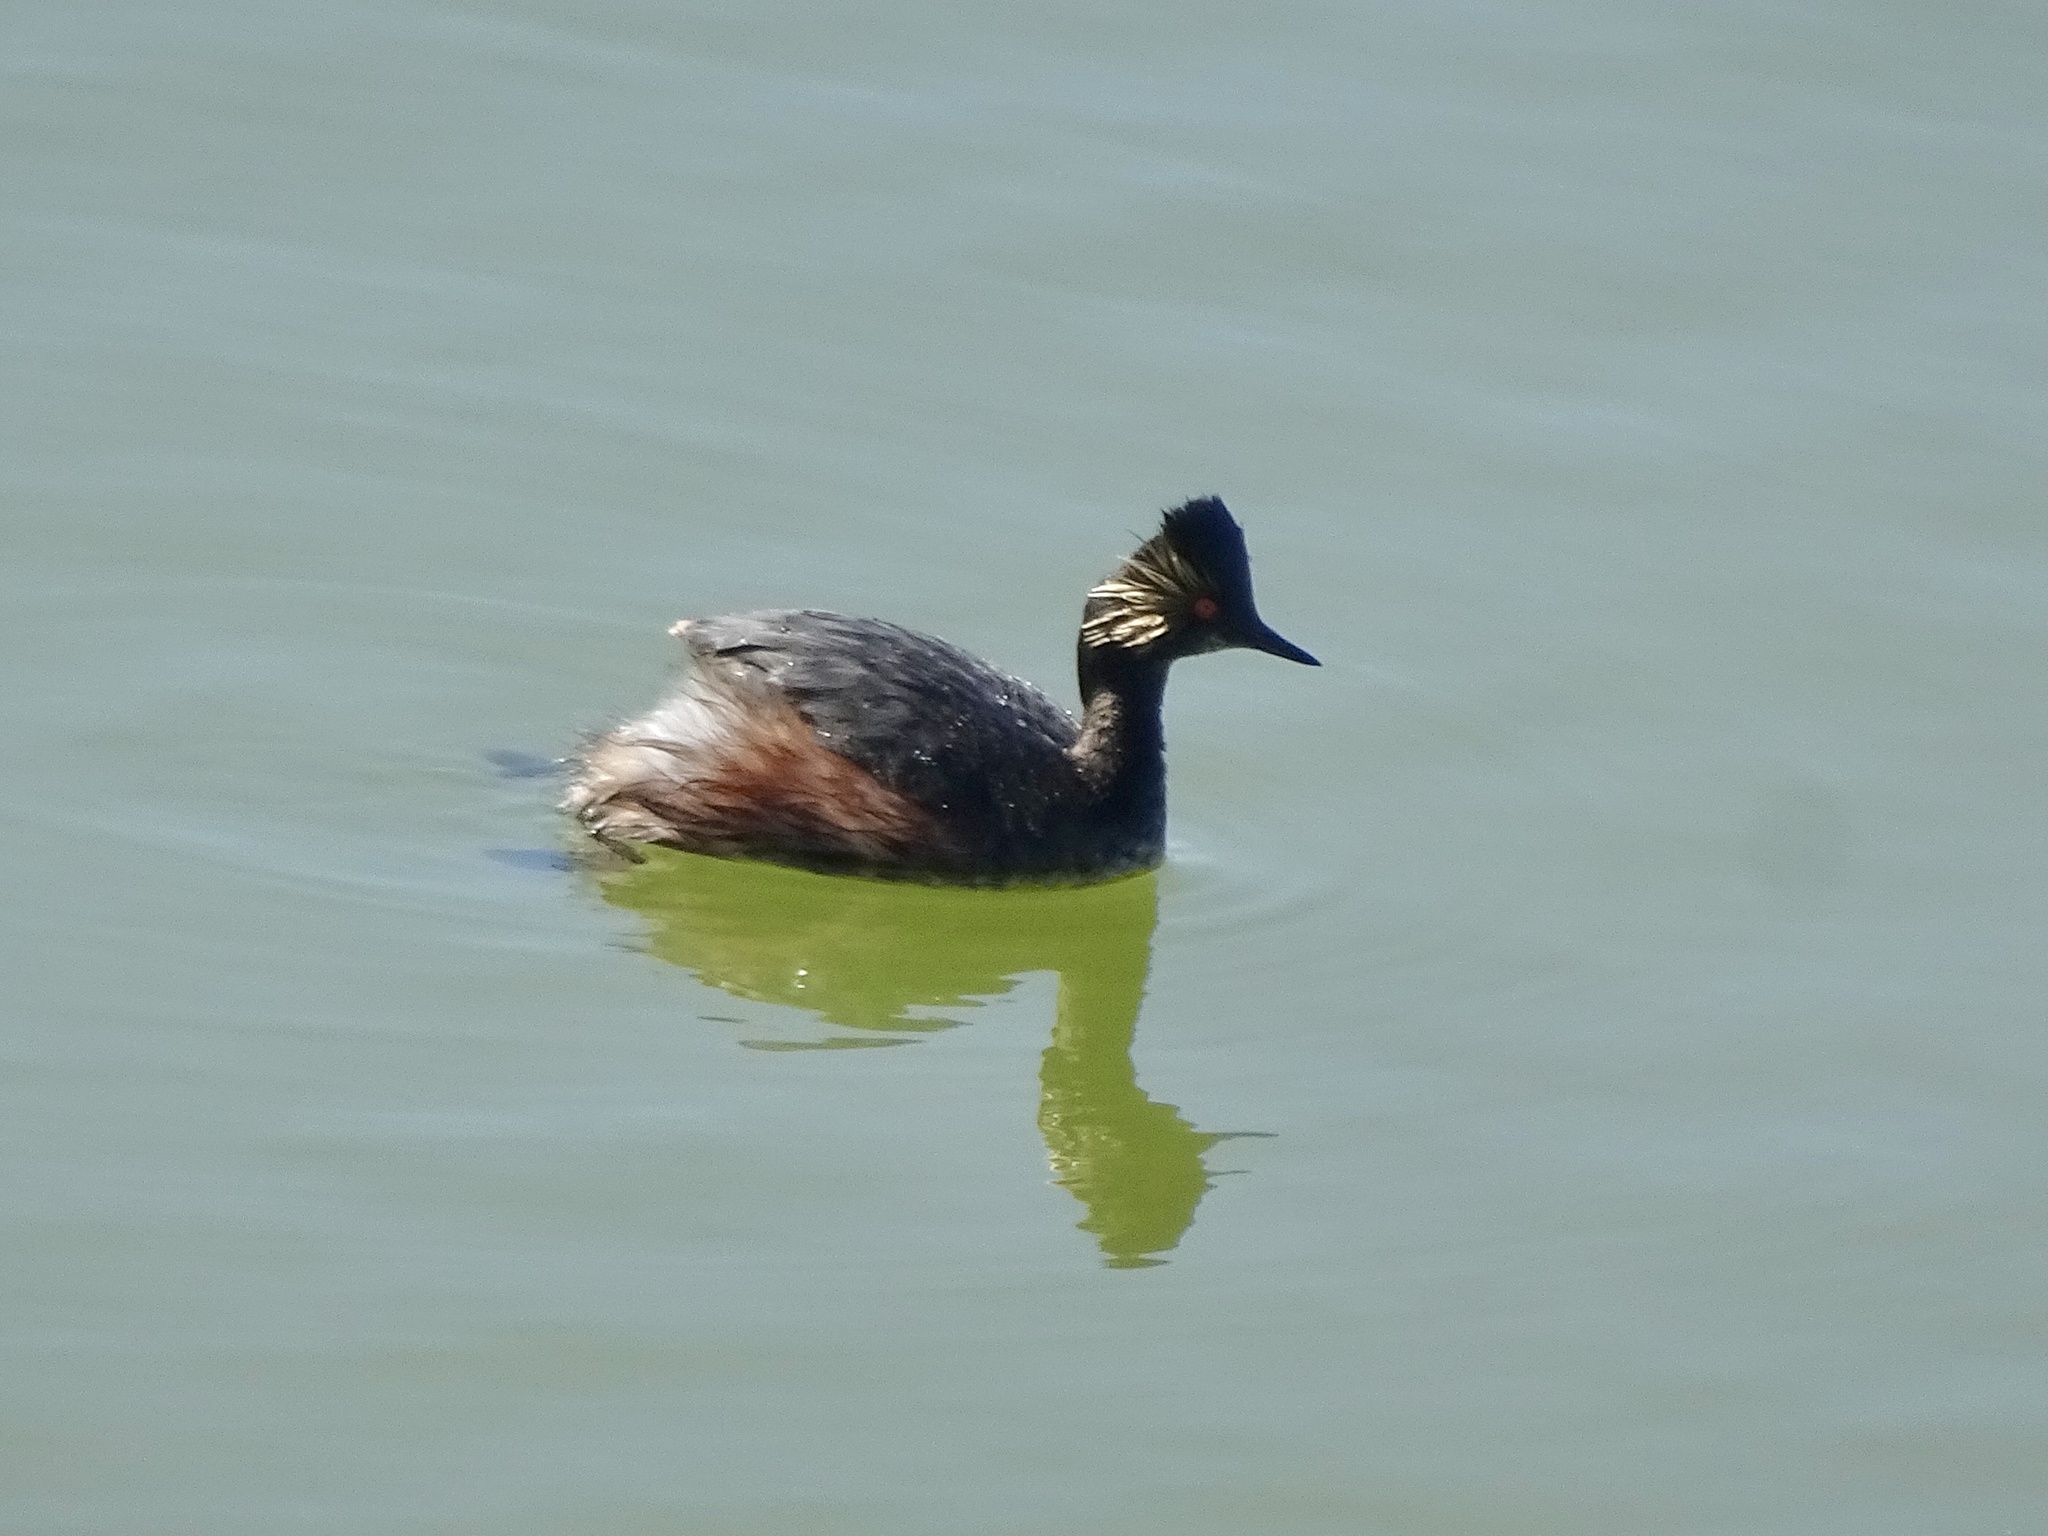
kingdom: Animalia
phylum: Chordata
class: Aves
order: Podicipediformes
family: Podicipedidae
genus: Podiceps
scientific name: Podiceps nigricollis
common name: Black-necked grebe
